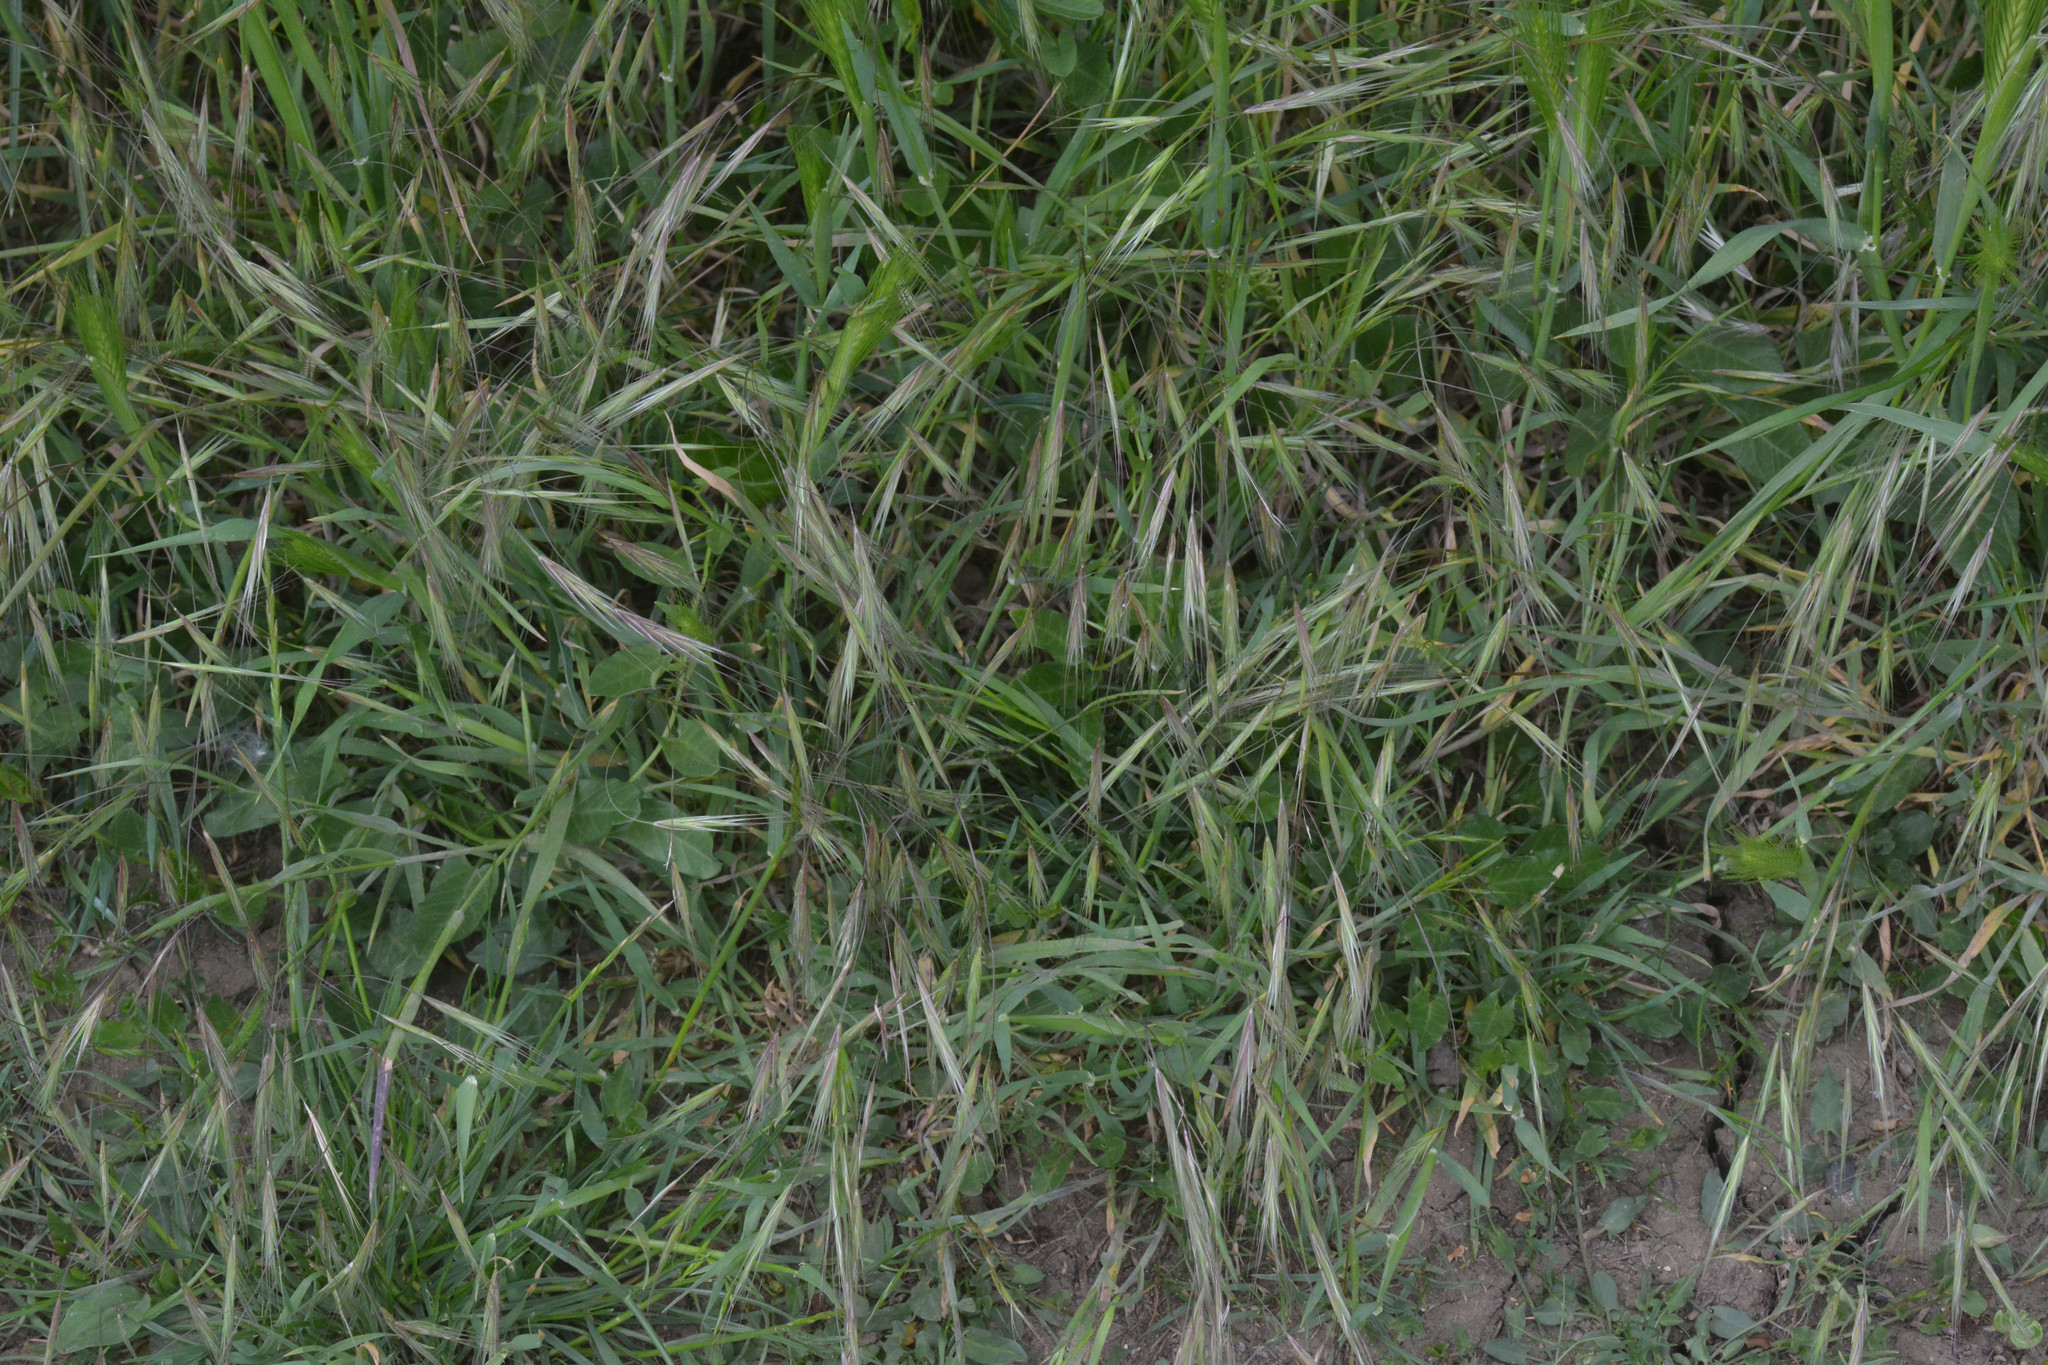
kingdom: Plantae
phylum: Tracheophyta
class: Liliopsida
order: Poales
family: Poaceae
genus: Bromus
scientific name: Bromus sterilis
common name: Poverty brome
